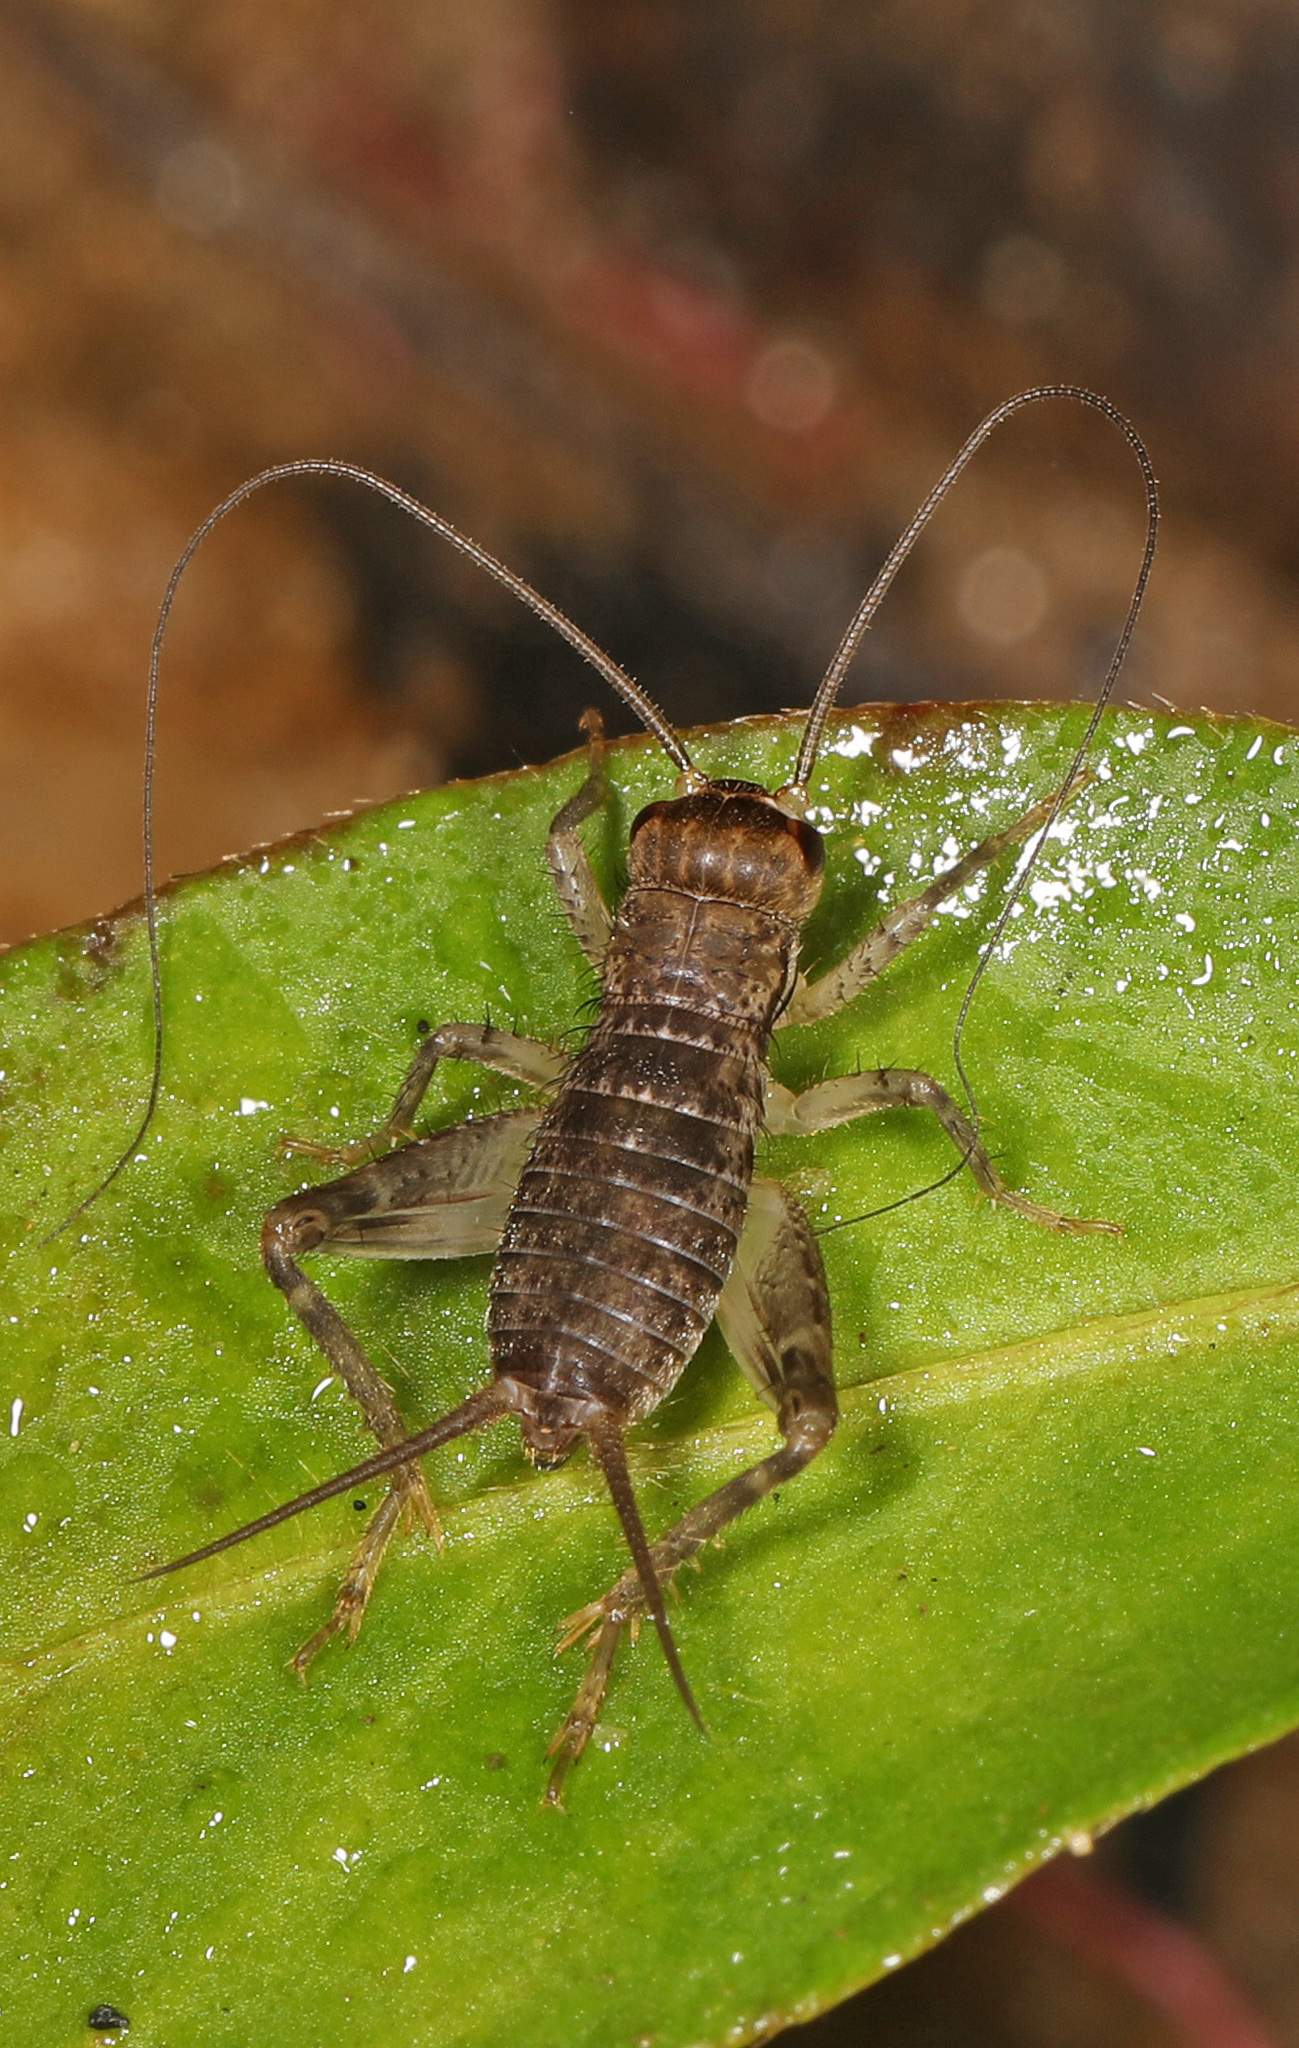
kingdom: Animalia
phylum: Arthropoda
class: Insecta
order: Orthoptera
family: Gryllidae
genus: Velarifictorus
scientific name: Velarifictorus micado
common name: Japanese burrowing cricket
